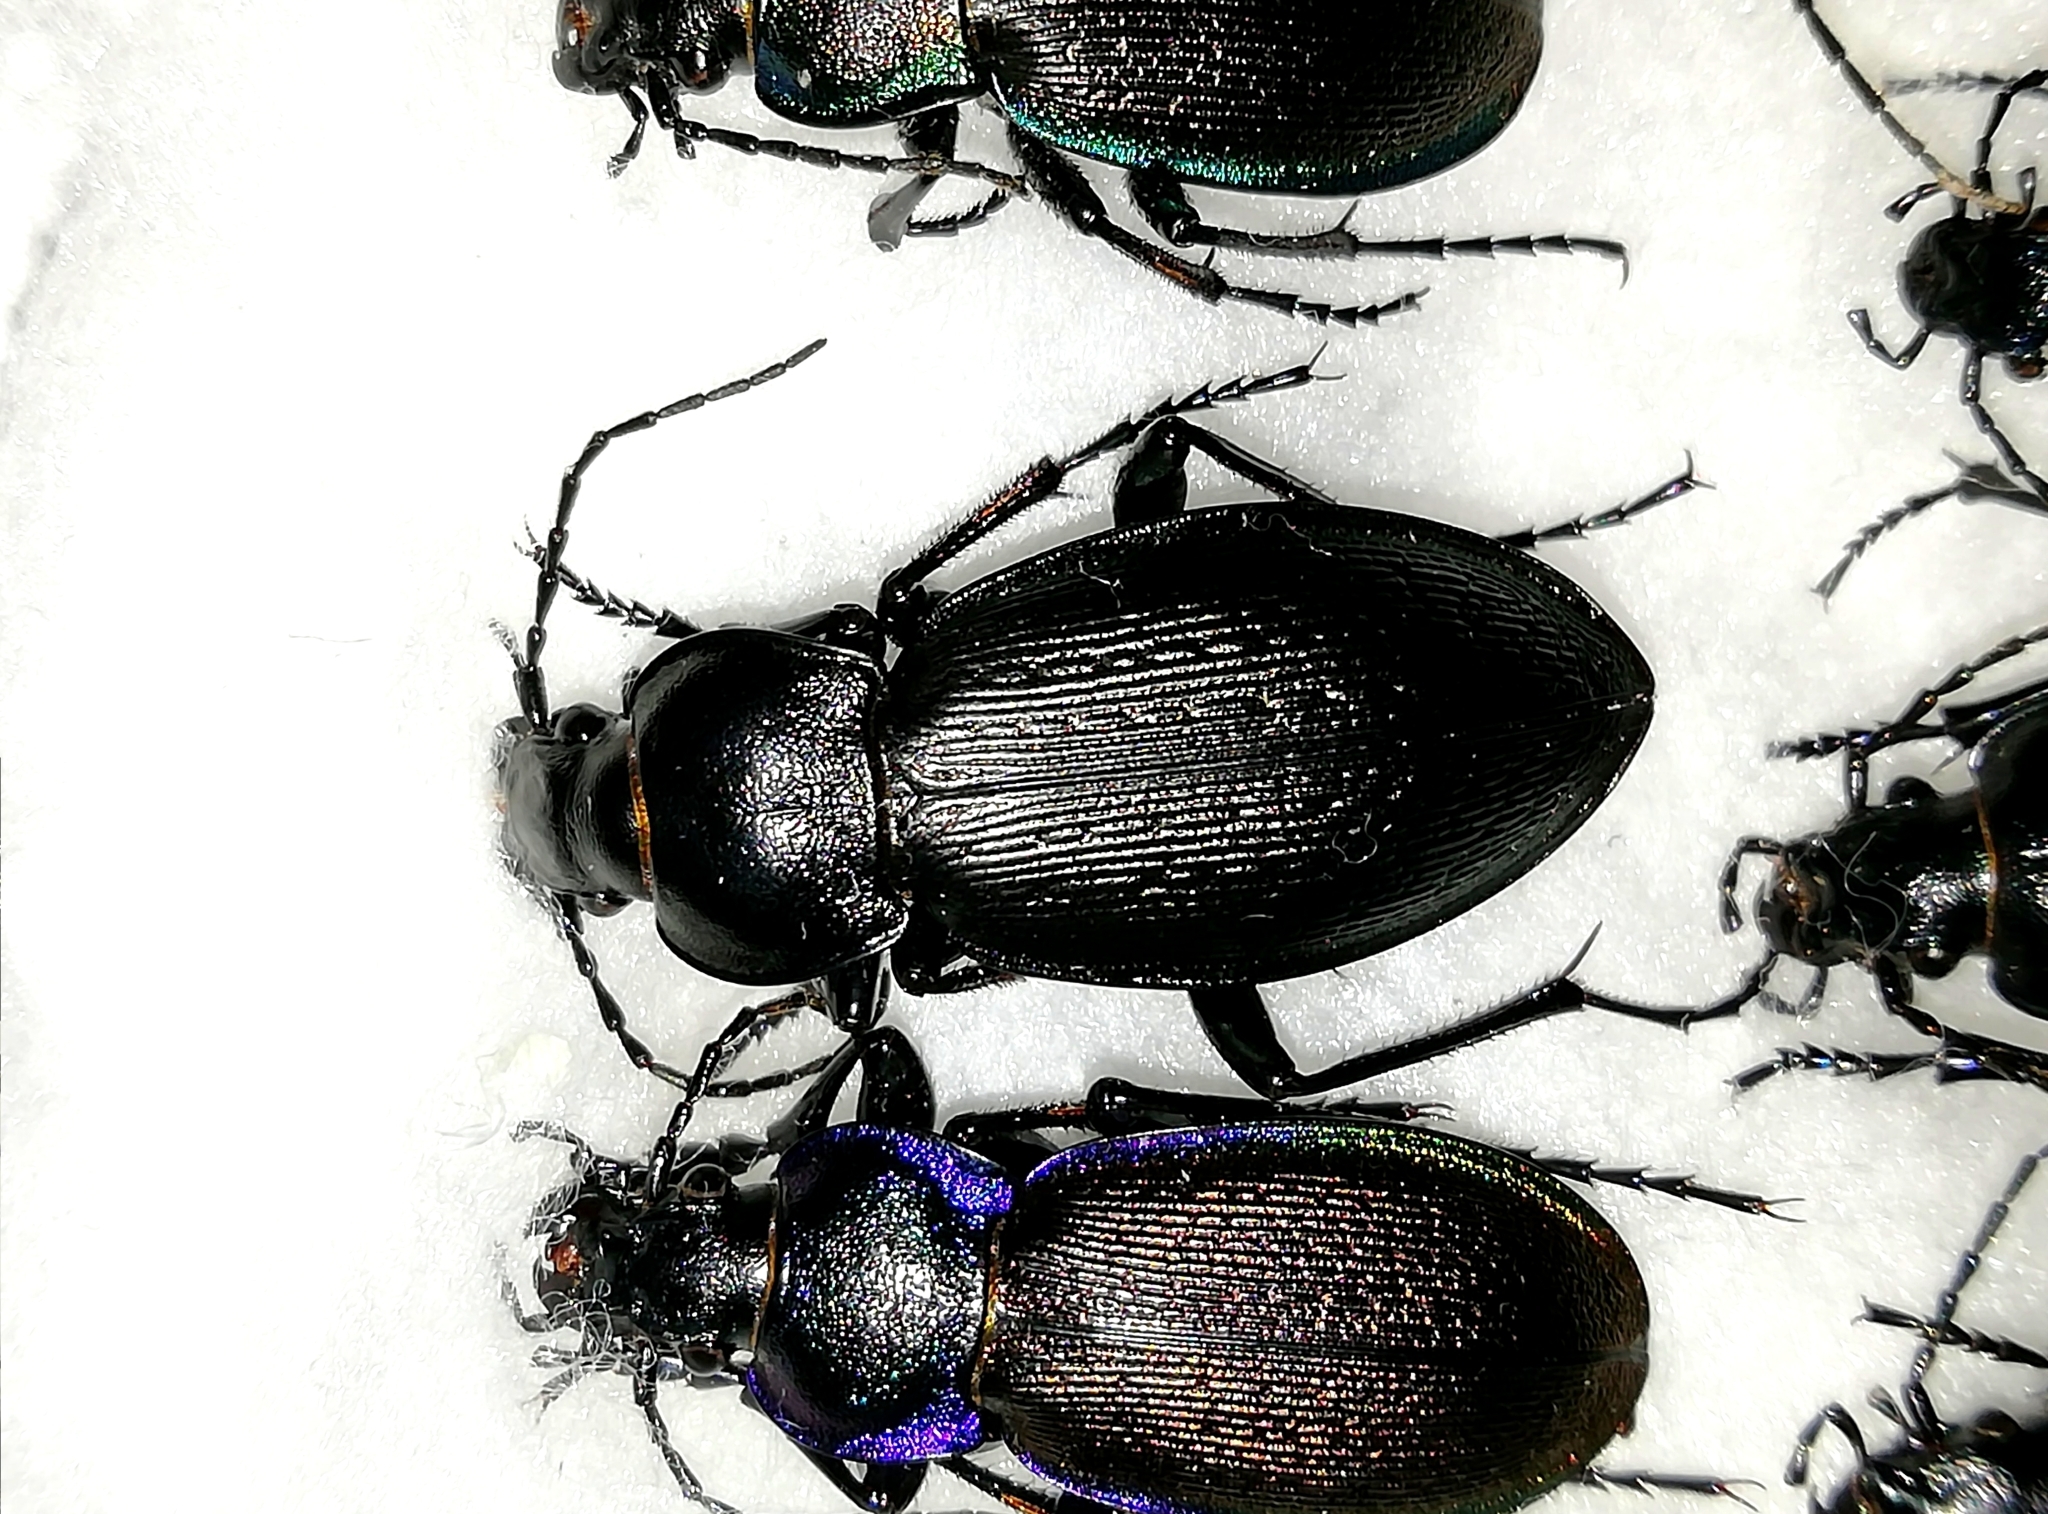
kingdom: Animalia
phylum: Arthropoda
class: Insecta
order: Coleoptera
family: Carabidae
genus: Carabus
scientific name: Carabus spasskianus
